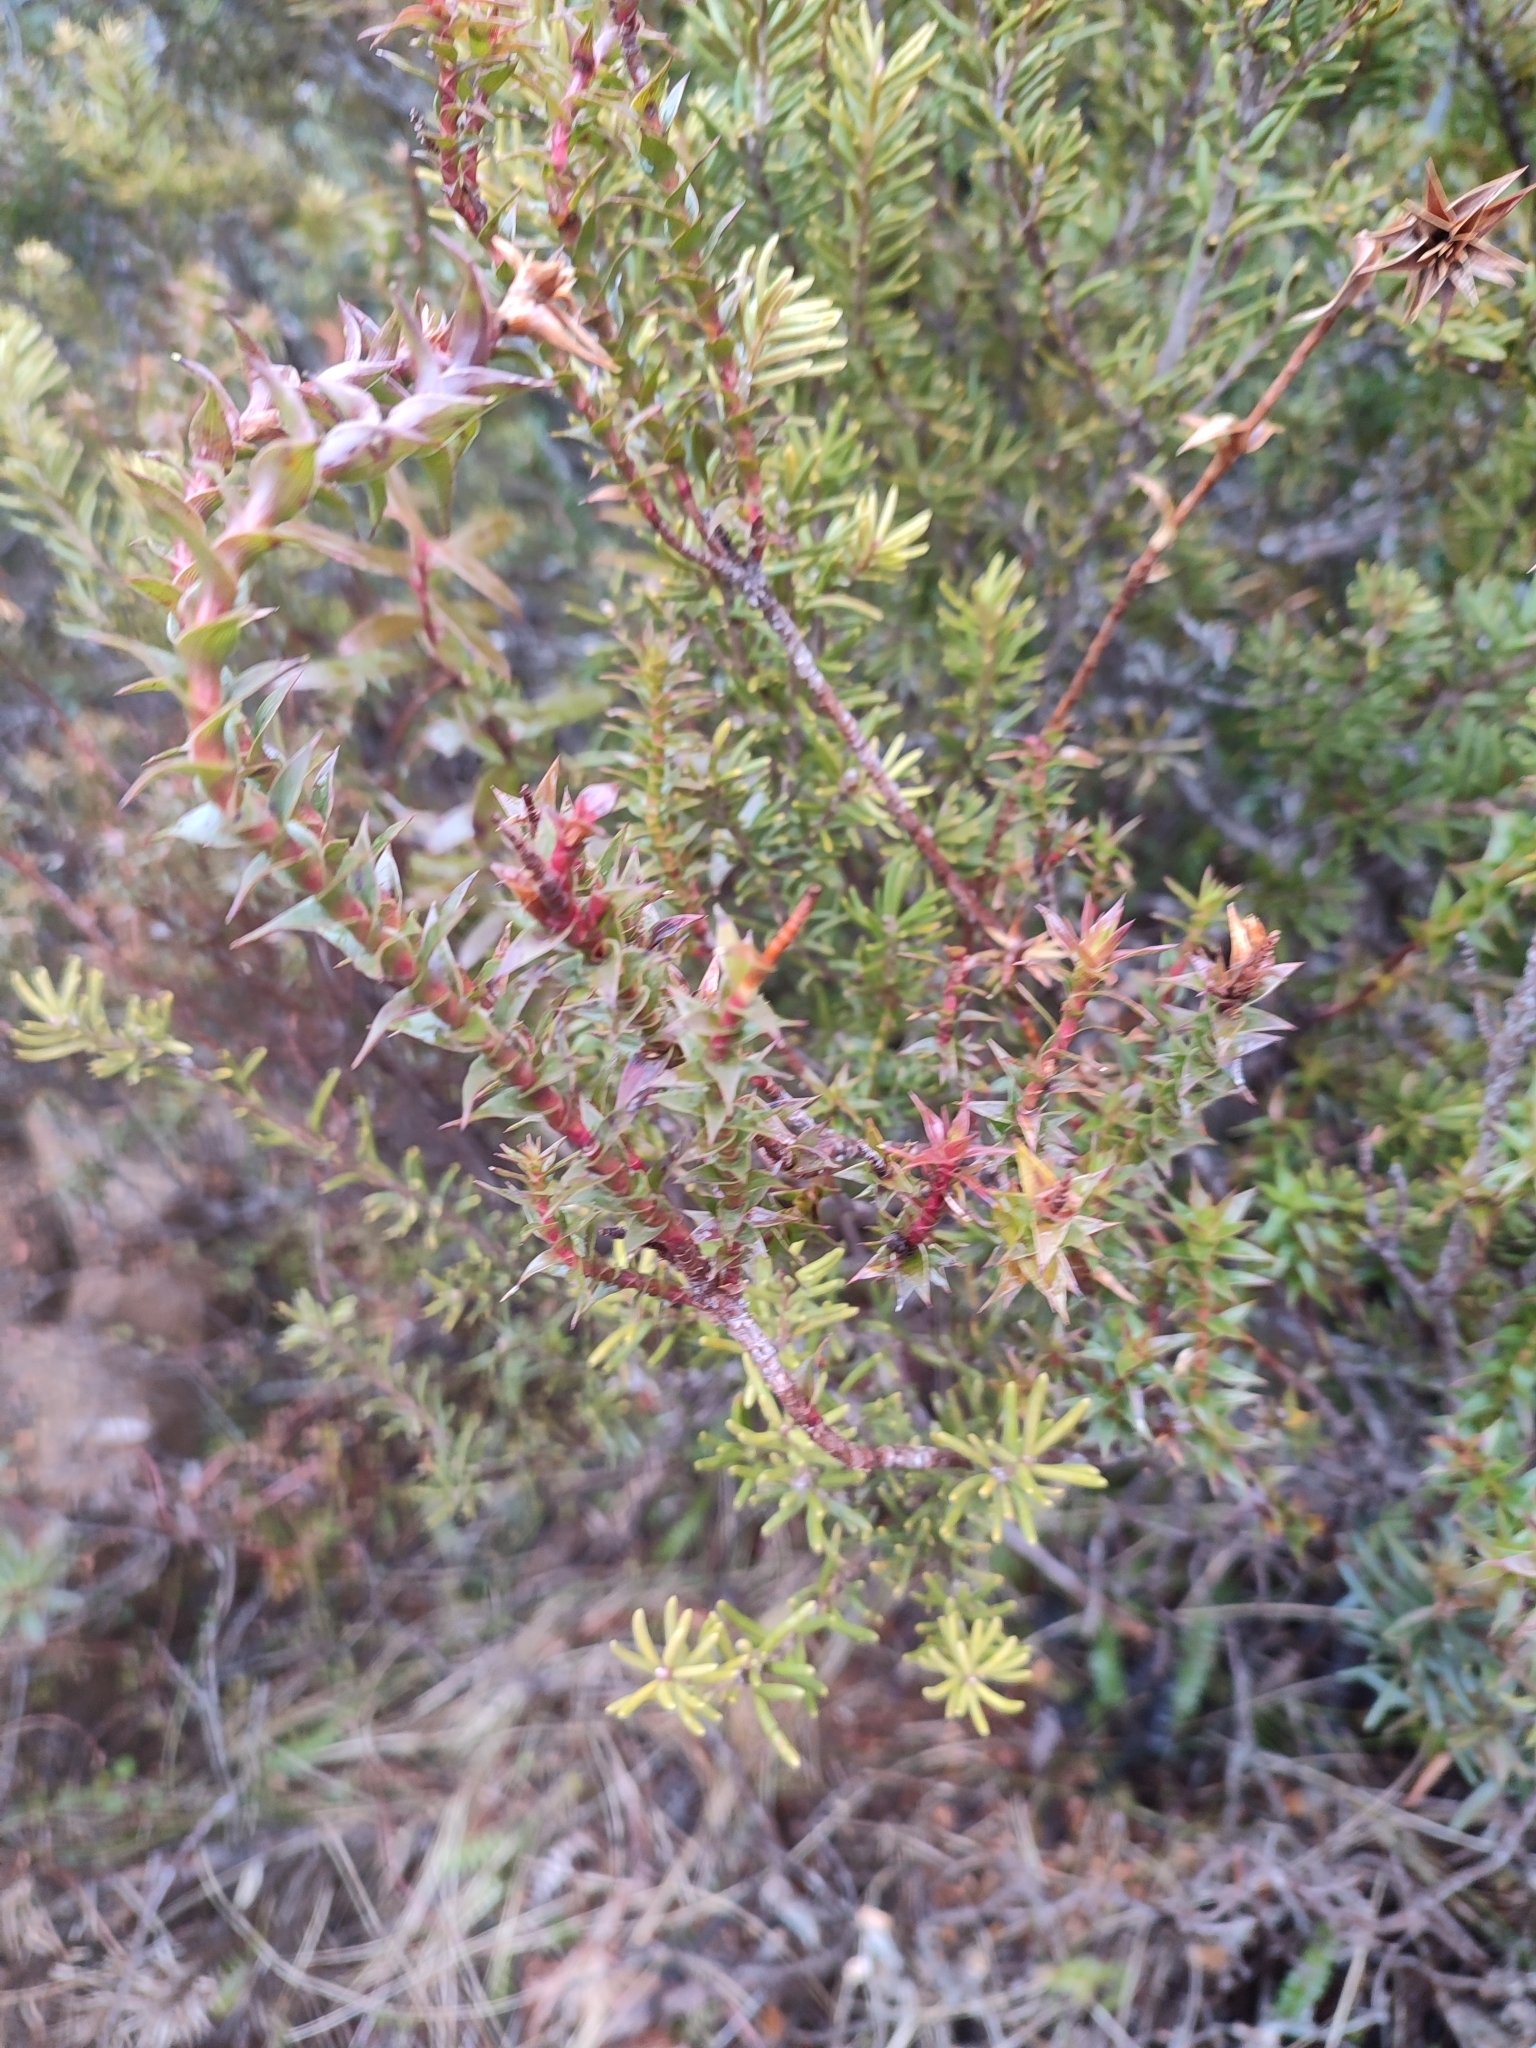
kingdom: Plantae
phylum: Tracheophyta
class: Magnoliopsida
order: Ericales
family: Ericaceae
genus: Dracophyllum
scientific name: Dracophyllum sprengelioides
